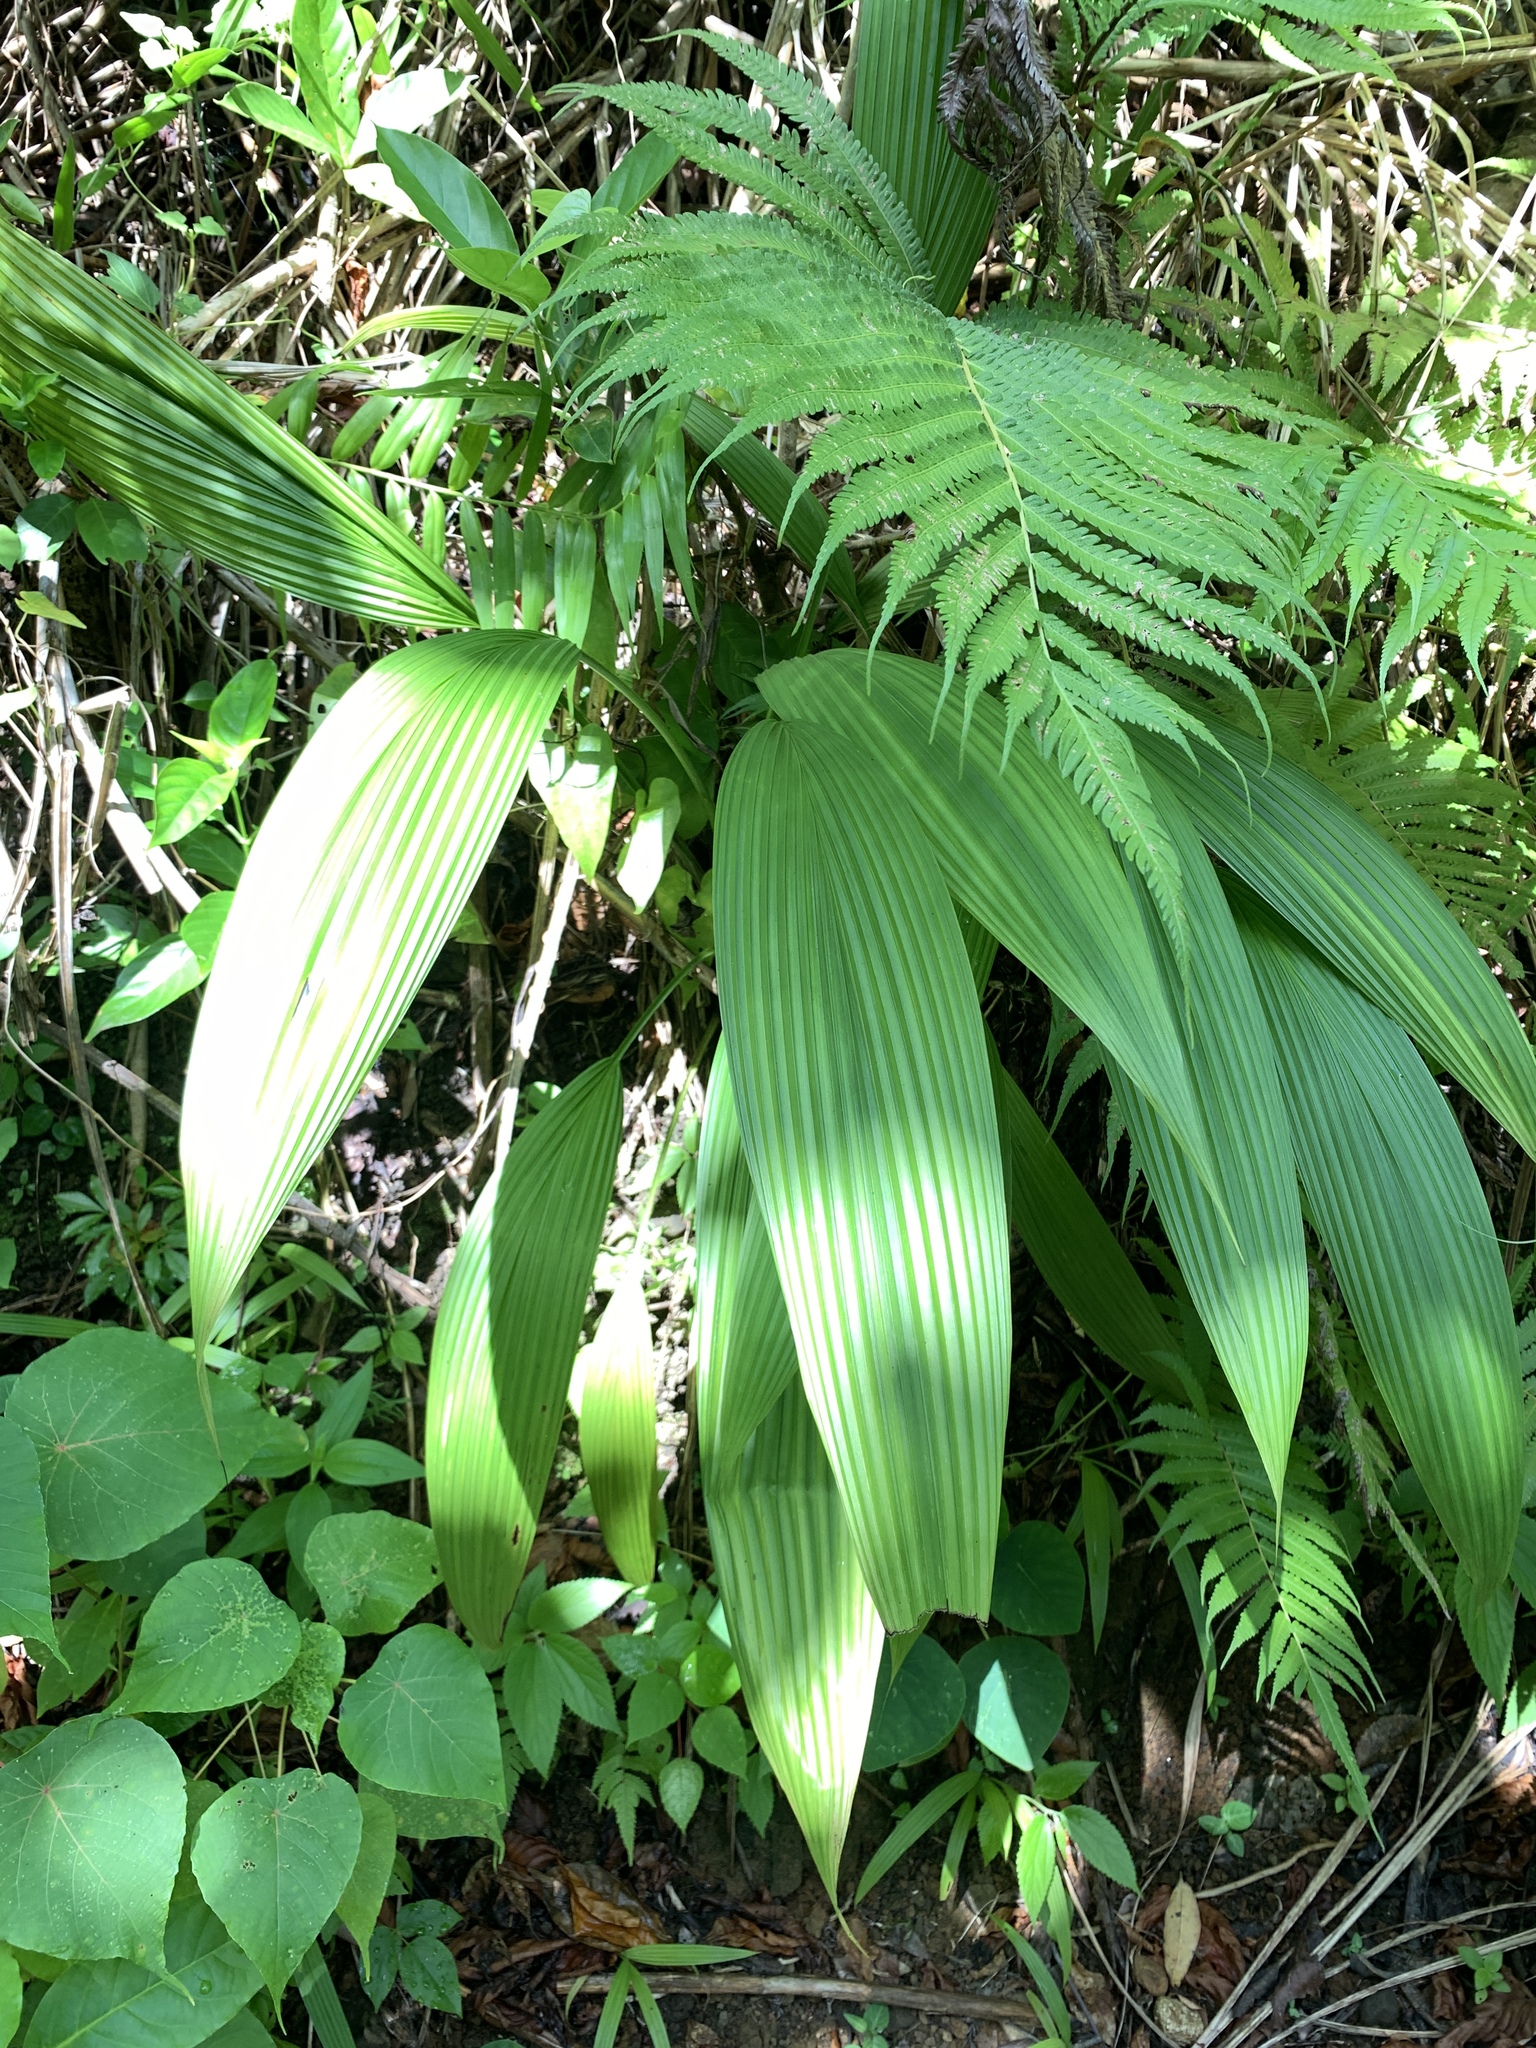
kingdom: Plantae
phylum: Tracheophyta
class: Liliopsida
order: Asparagales
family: Hypoxidaceae
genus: Curculigo
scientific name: Curculigo capitulata
